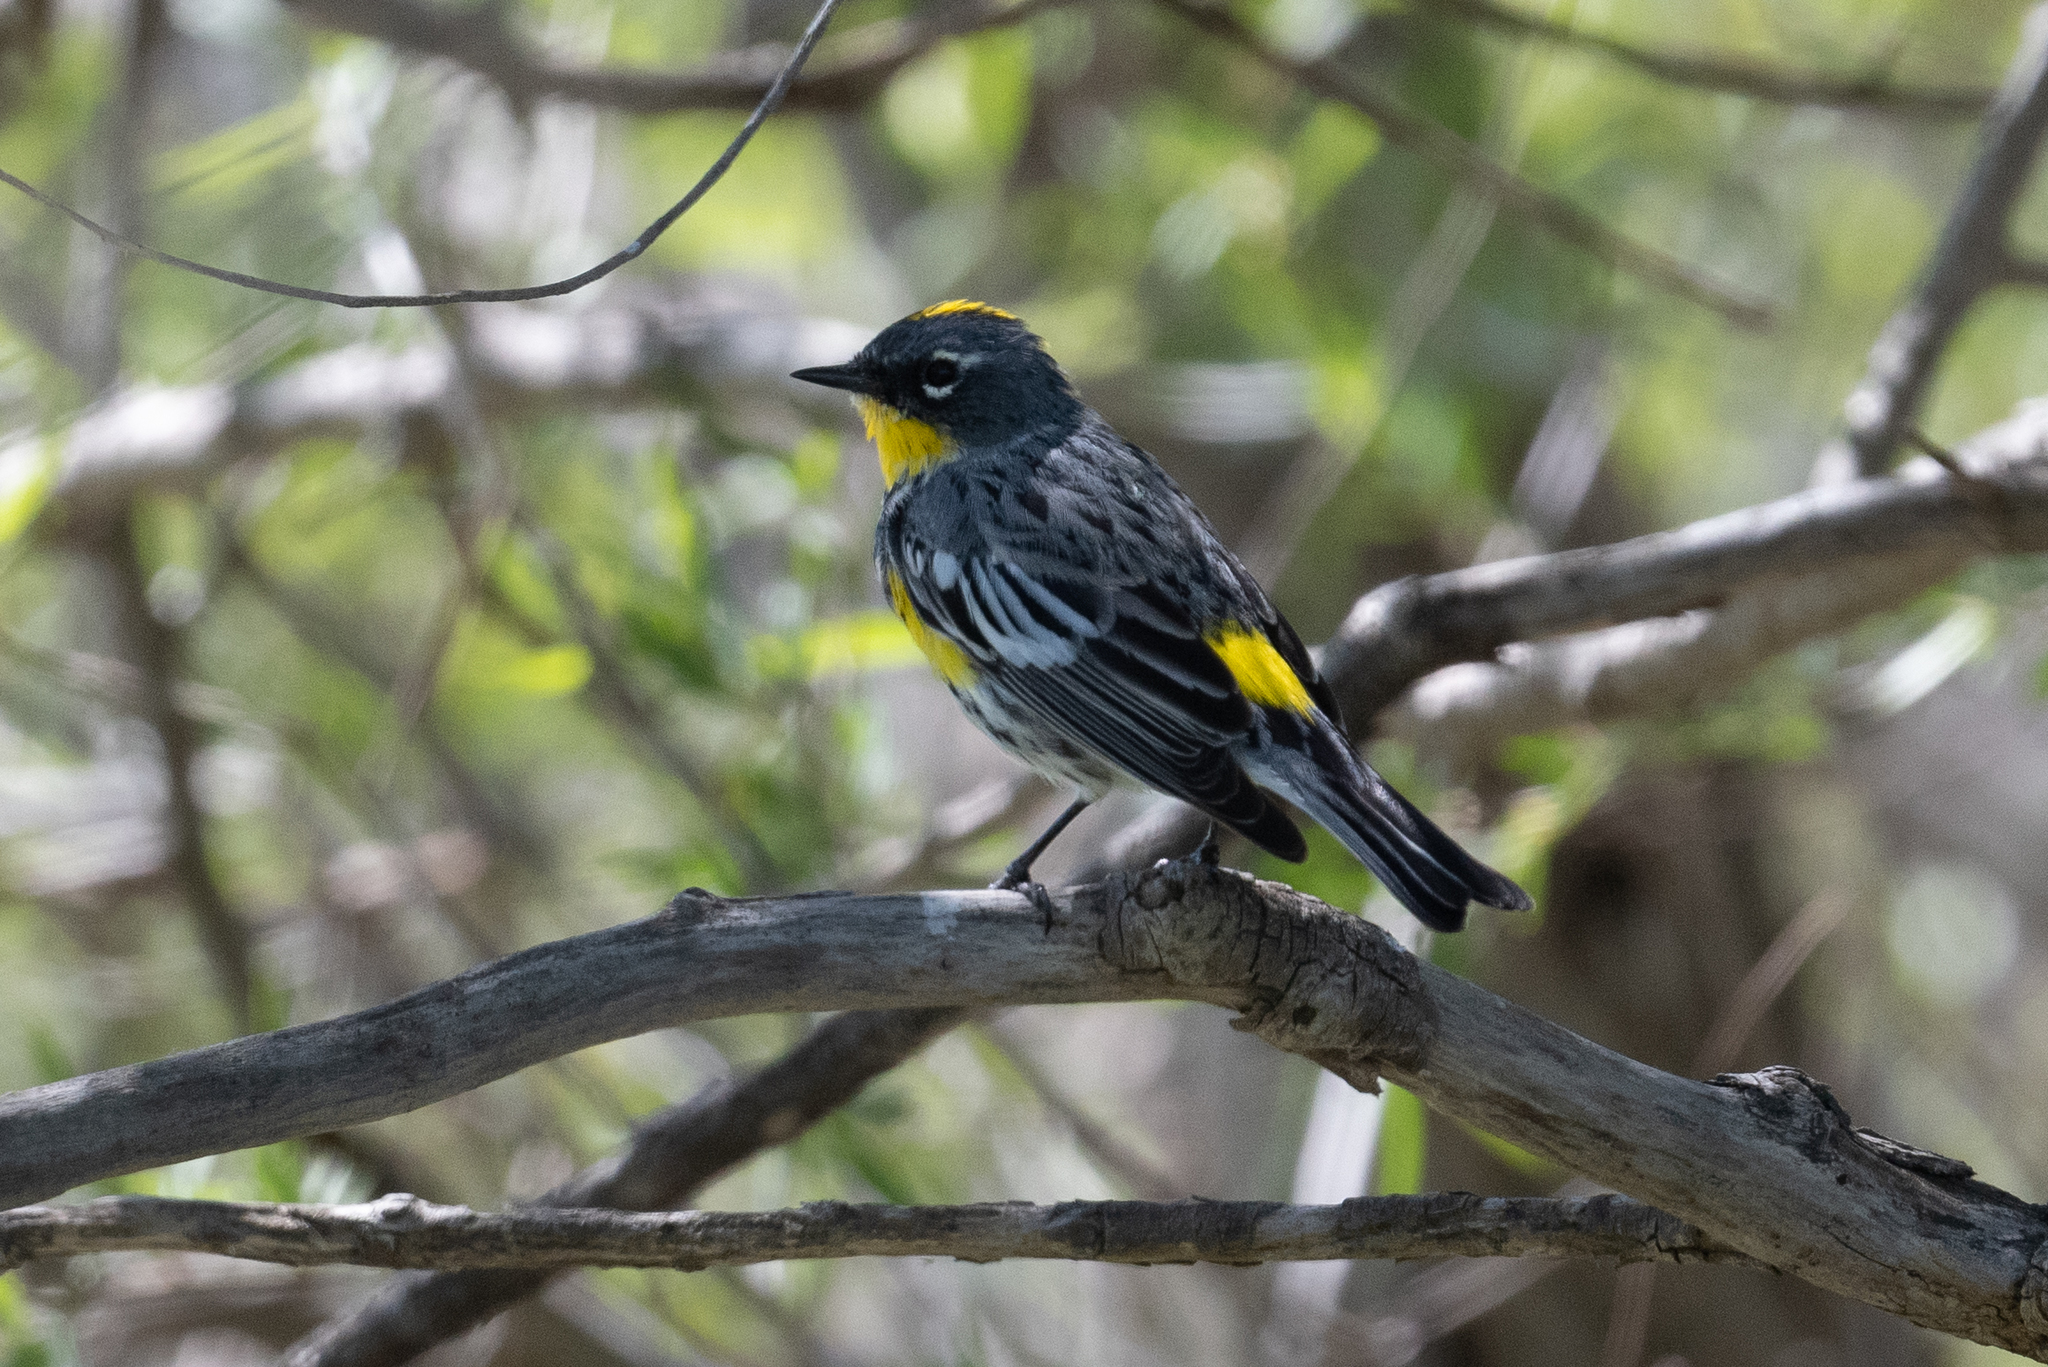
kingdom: Animalia
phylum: Chordata
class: Aves
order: Passeriformes
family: Parulidae
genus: Setophaga
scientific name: Setophaga coronata
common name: Myrtle warbler
